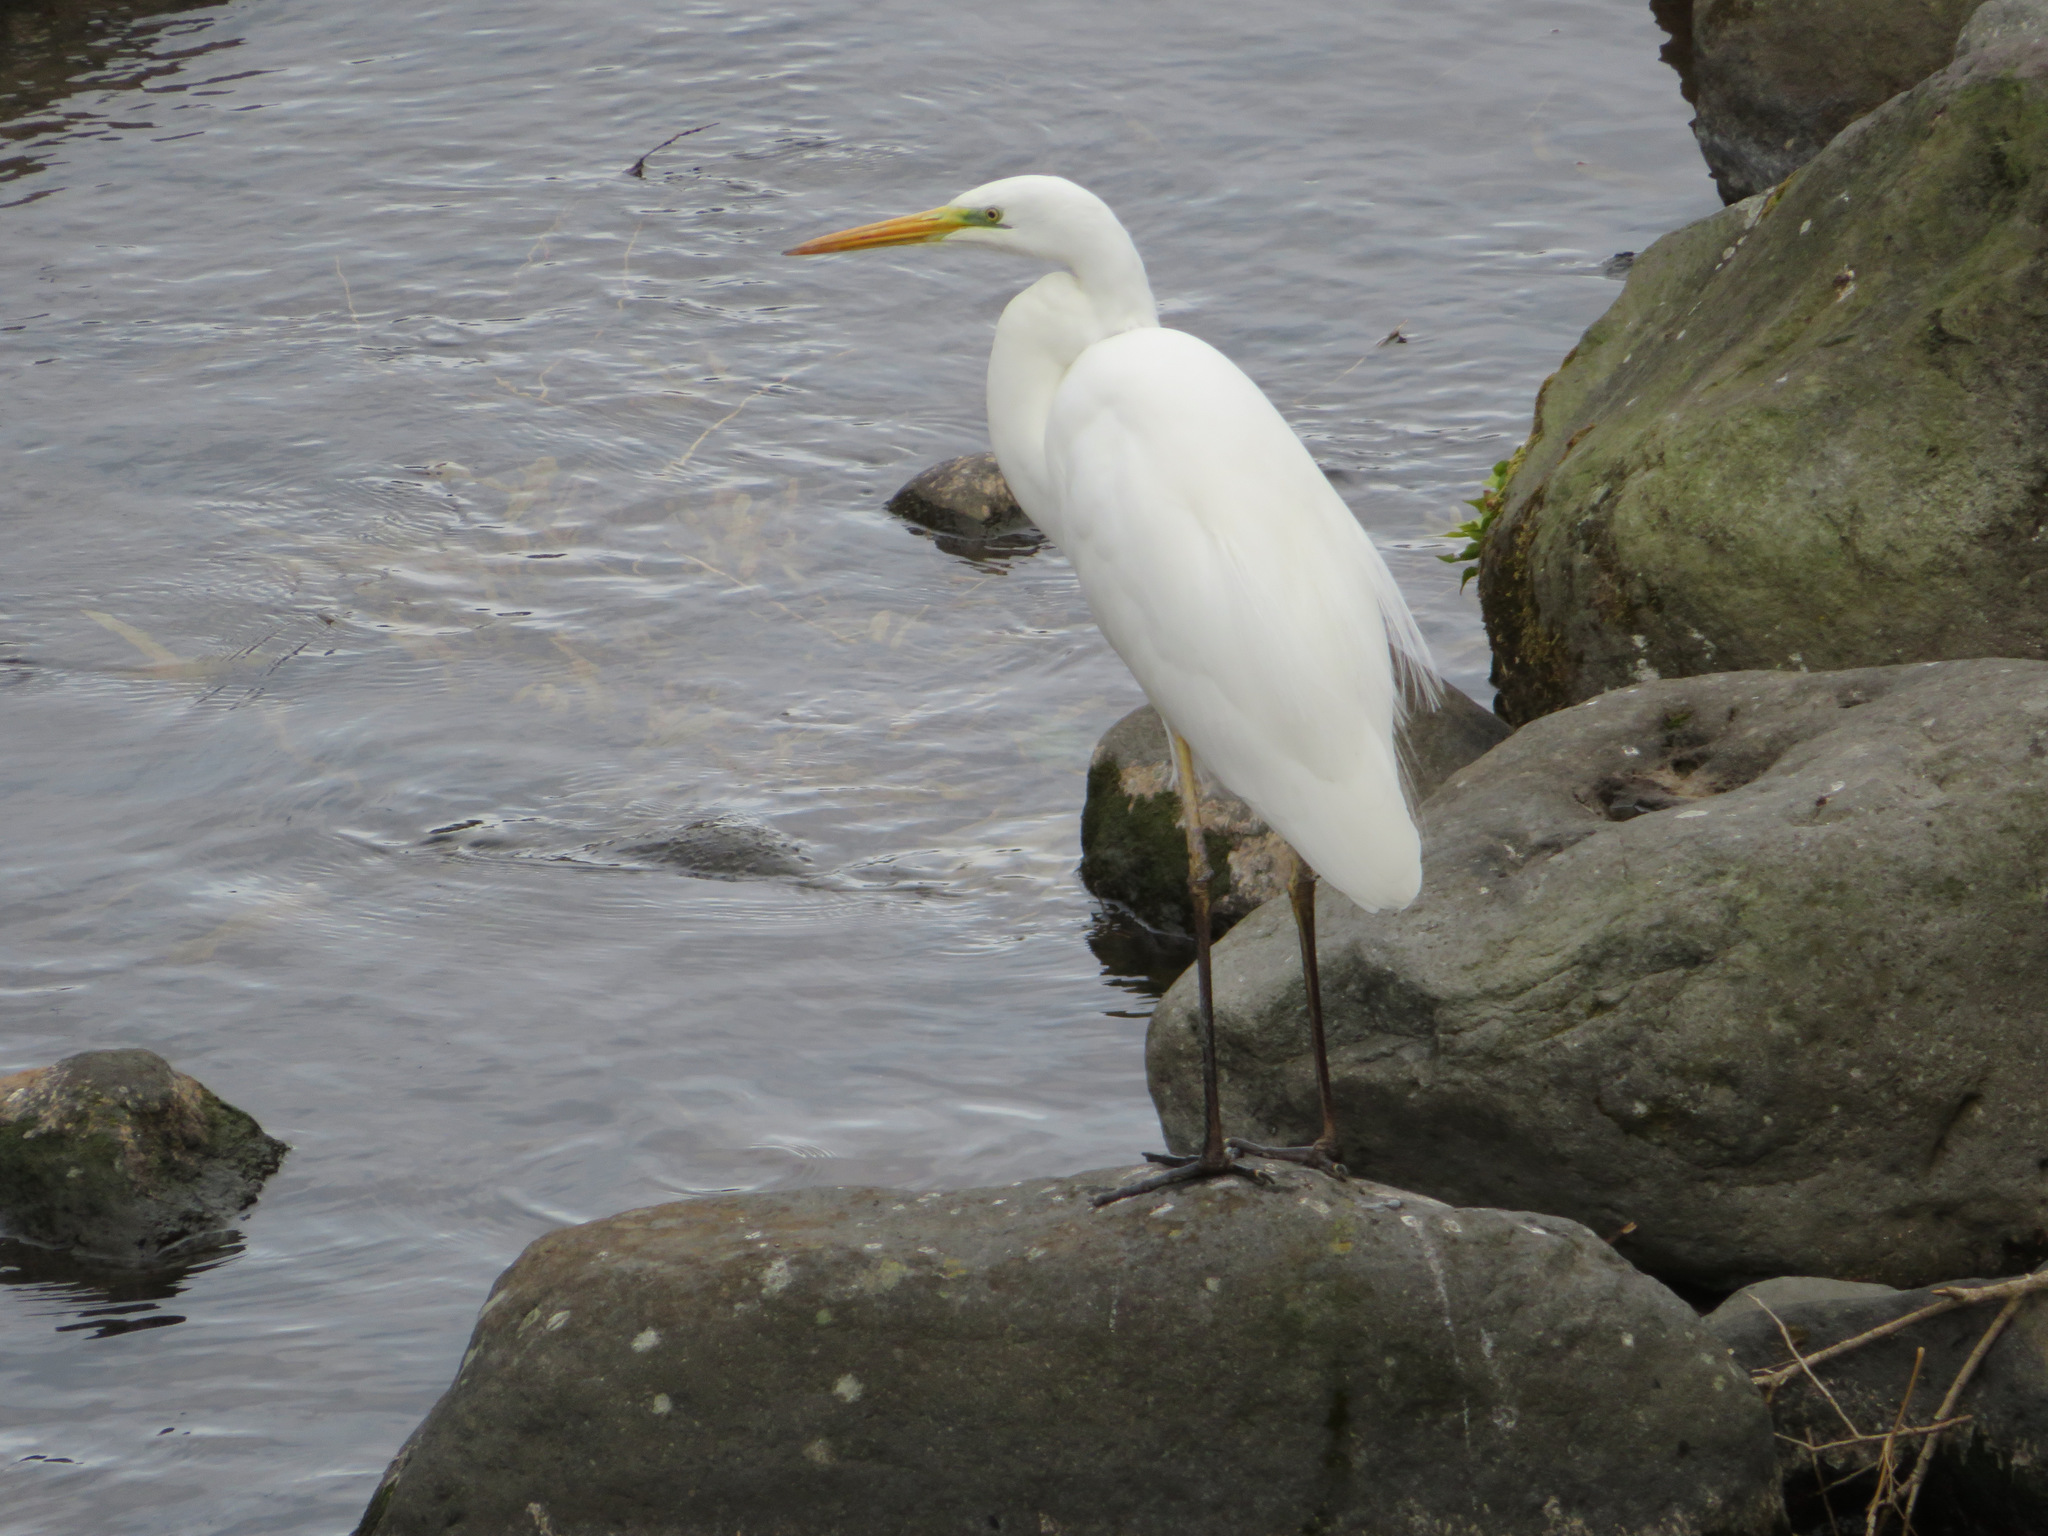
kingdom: Animalia
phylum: Chordata
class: Aves
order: Pelecaniformes
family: Ardeidae
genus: Ardea
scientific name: Ardea alba
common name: Great egret
